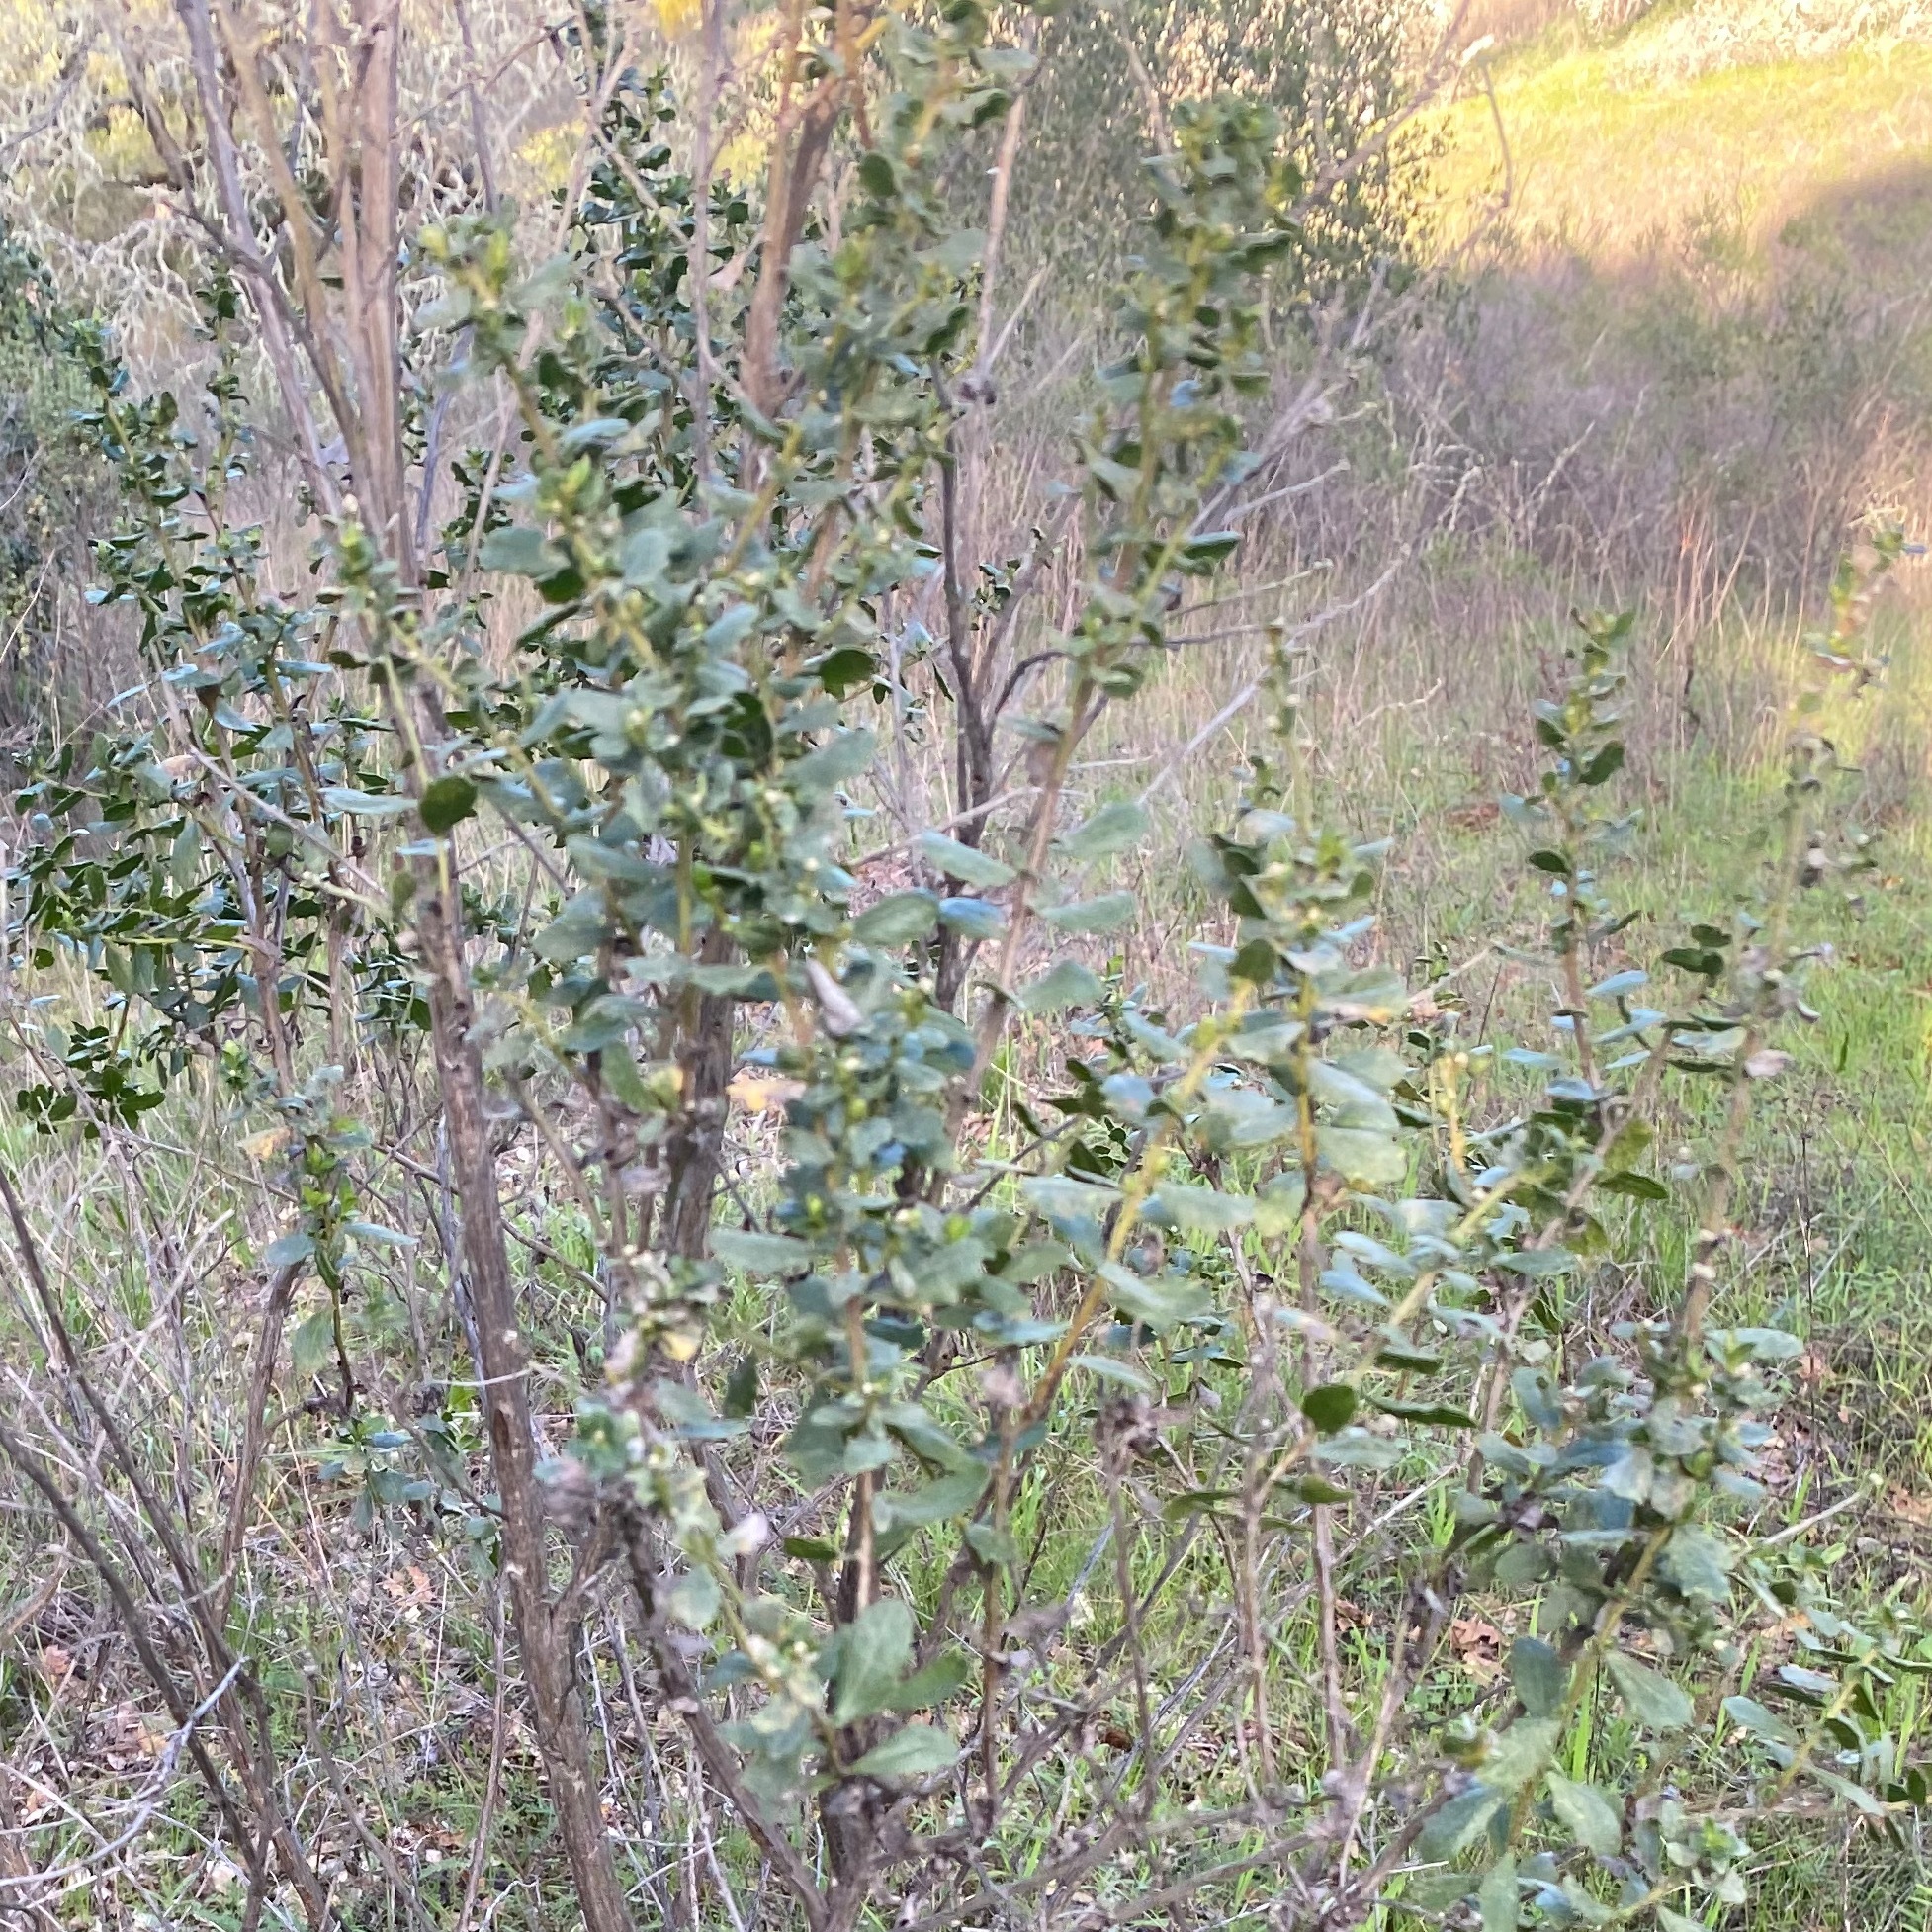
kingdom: Plantae
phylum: Tracheophyta
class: Magnoliopsida
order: Asterales
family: Asteraceae
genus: Baccharis
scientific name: Baccharis pilularis
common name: Coyotebrush
